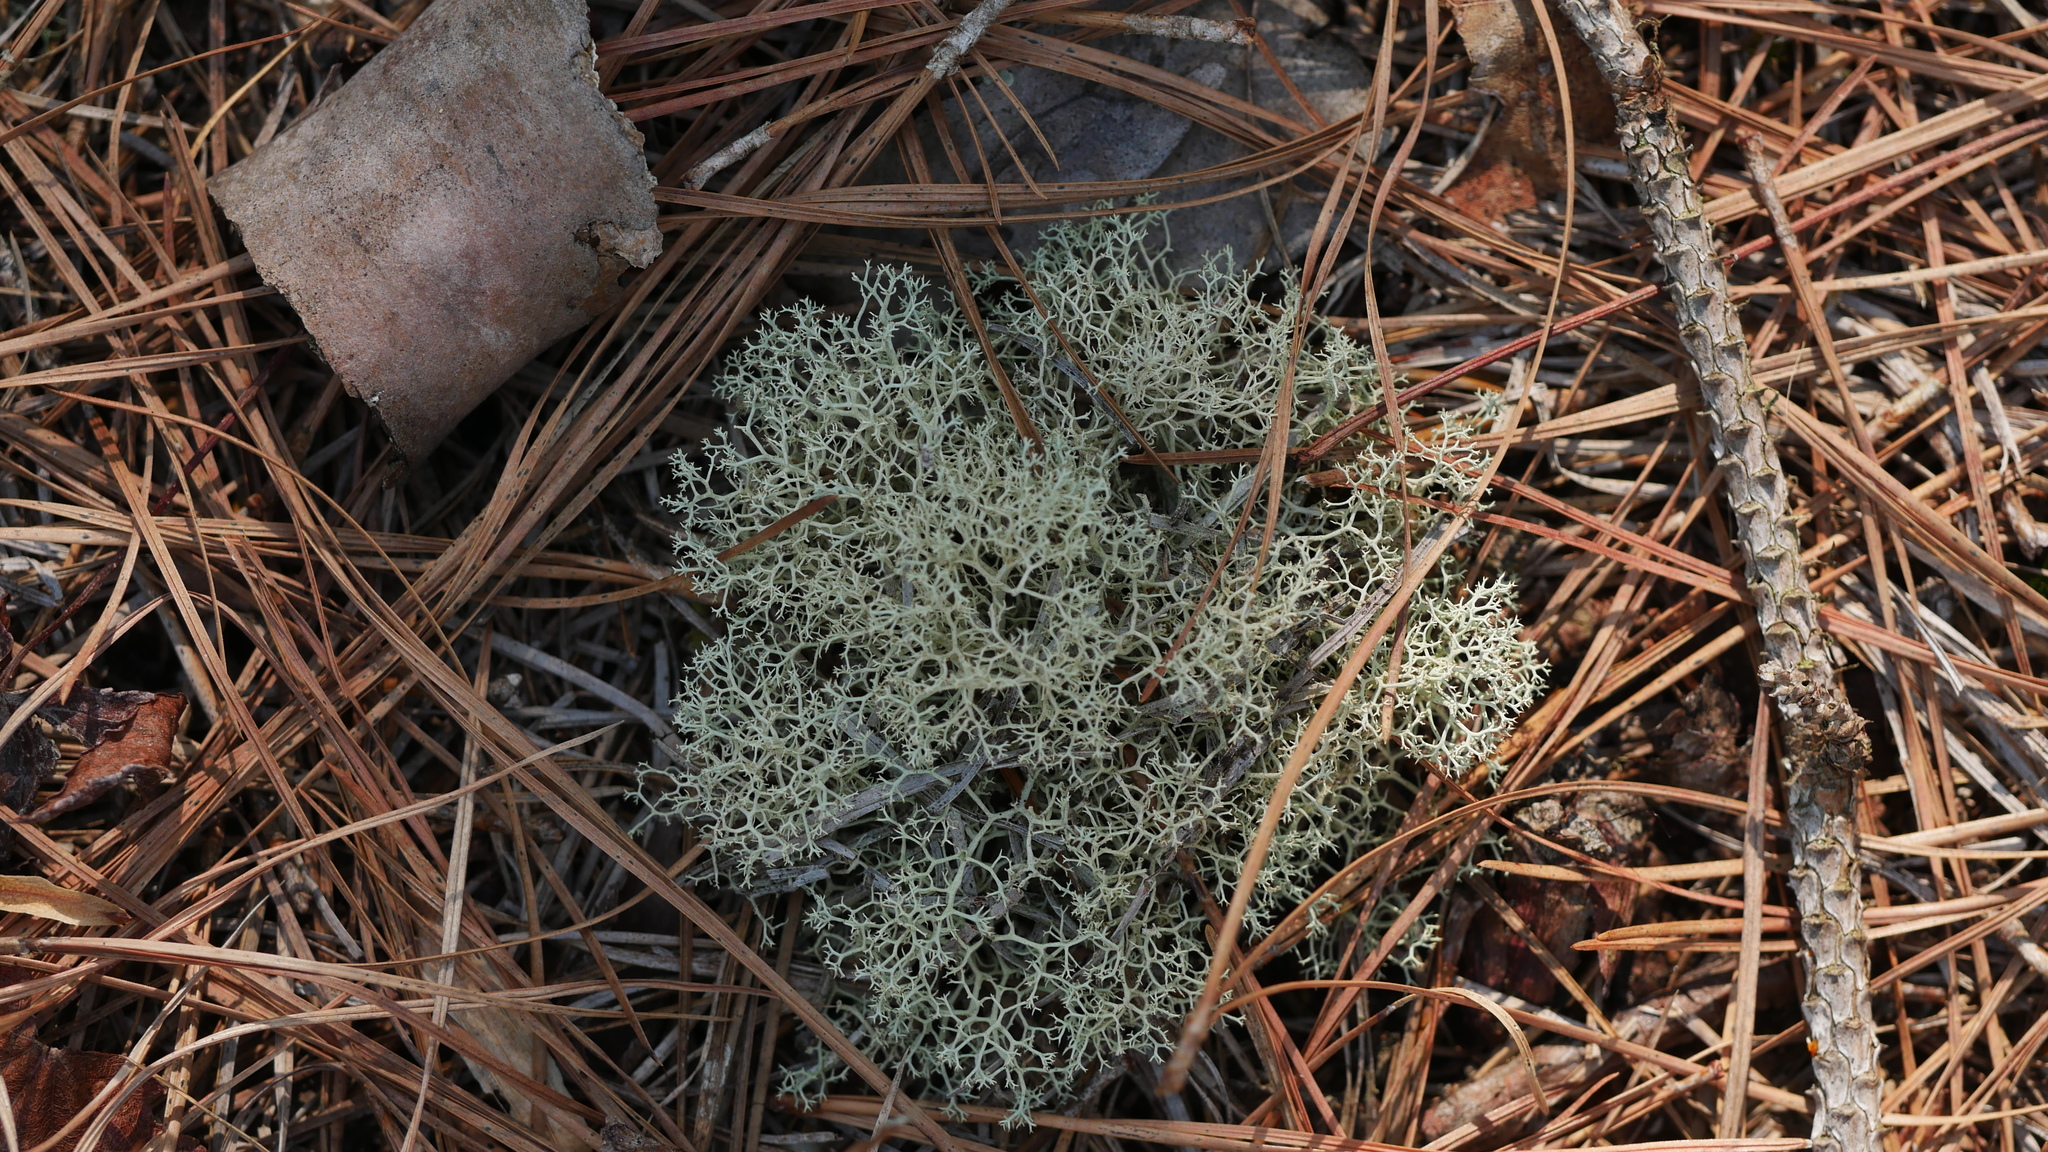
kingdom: Fungi
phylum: Ascomycota
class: Lecanoromycetes
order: Lecanorales
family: Cladoniaceae
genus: Cladonia
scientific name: Cladonia subtenuis
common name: Dixie reindeer lichen
